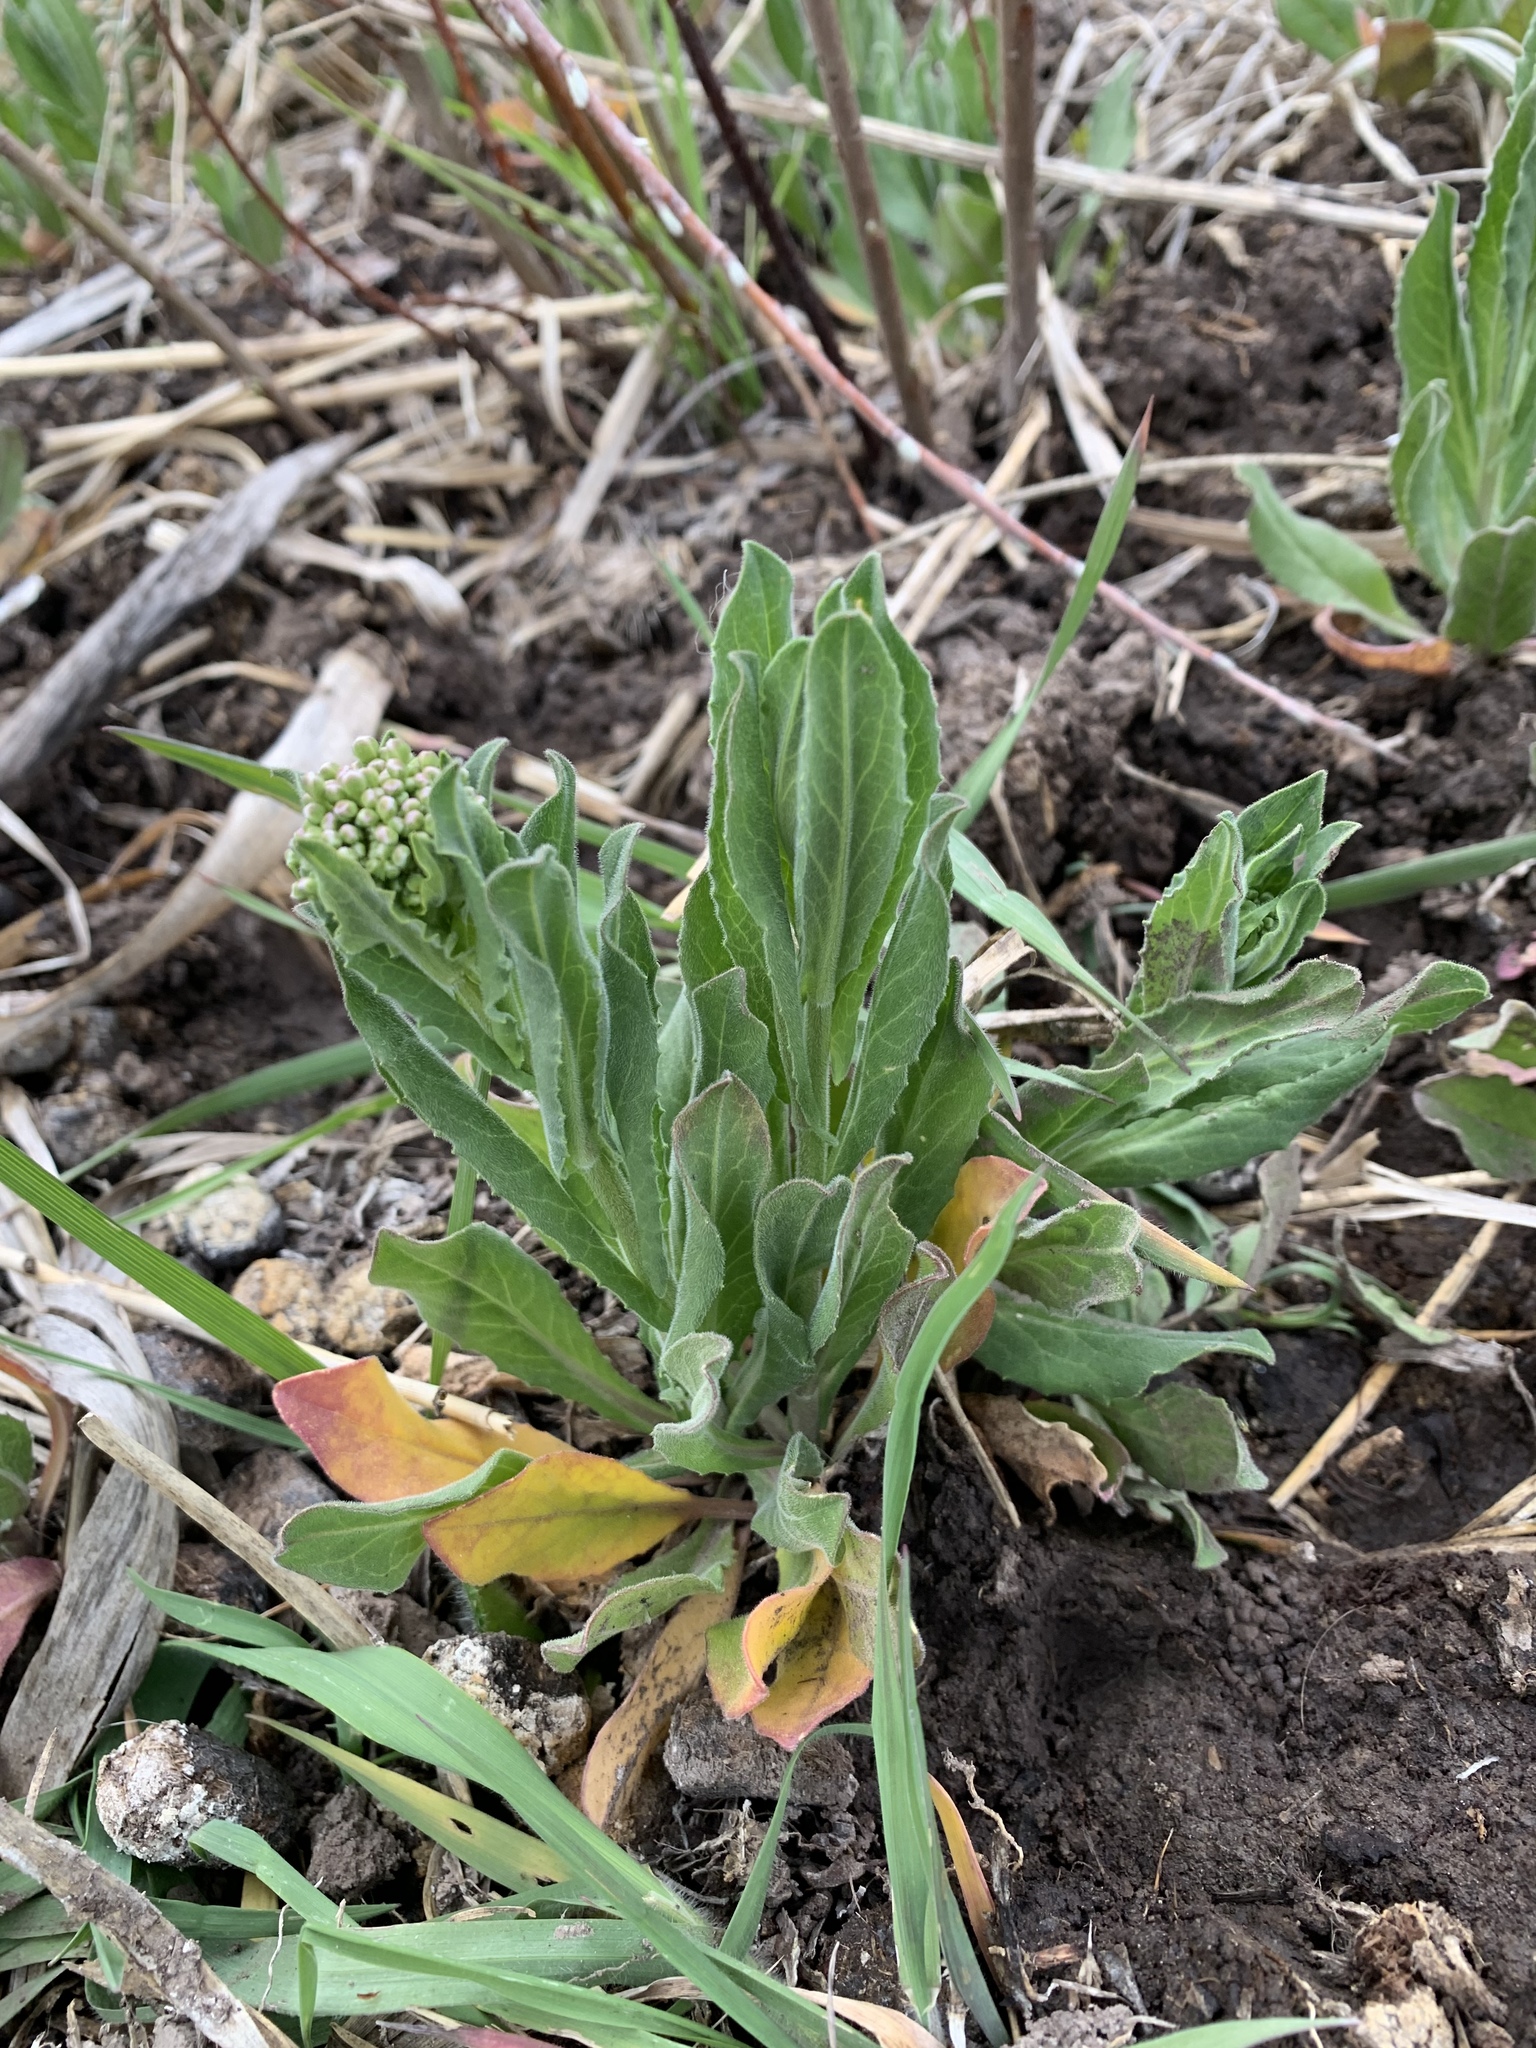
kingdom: Plantae
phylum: Tracheophyta
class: Magnoliopsida
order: Brassicales
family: Brassicaceae
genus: Lepidium
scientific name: Lepidium draba
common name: Hoary cress
